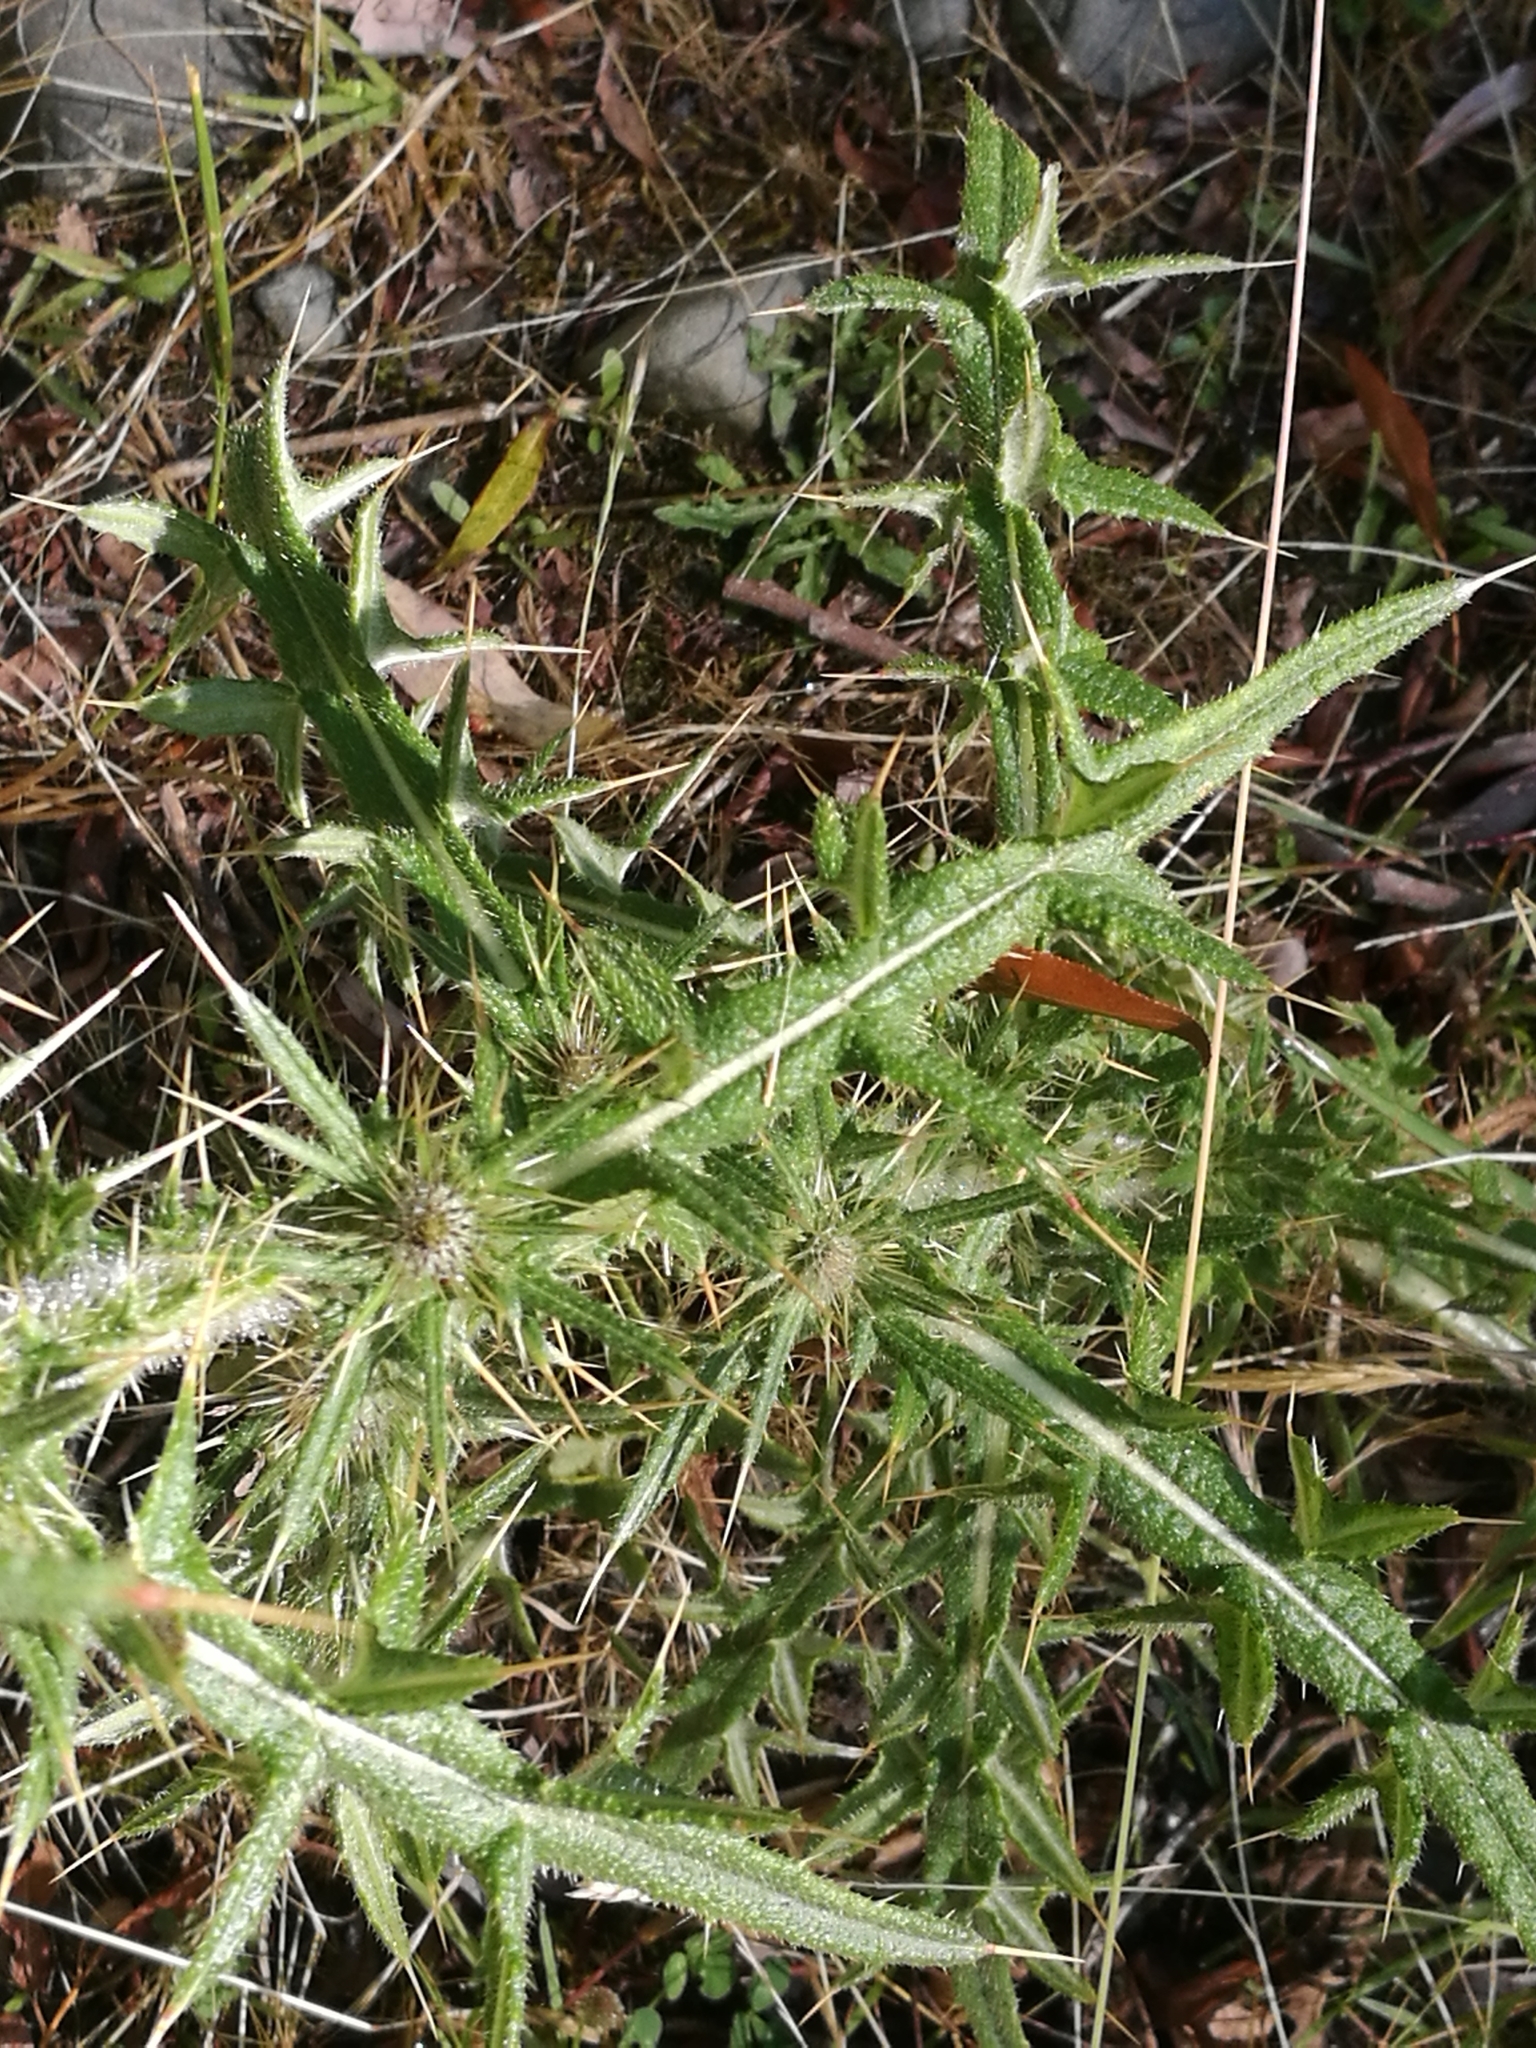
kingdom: Plantae
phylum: Tracheophyta
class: Magnoliopsida
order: Asterales
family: Asteraceae
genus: Cirsium
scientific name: Cirsium vulgare
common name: Bull thistle
